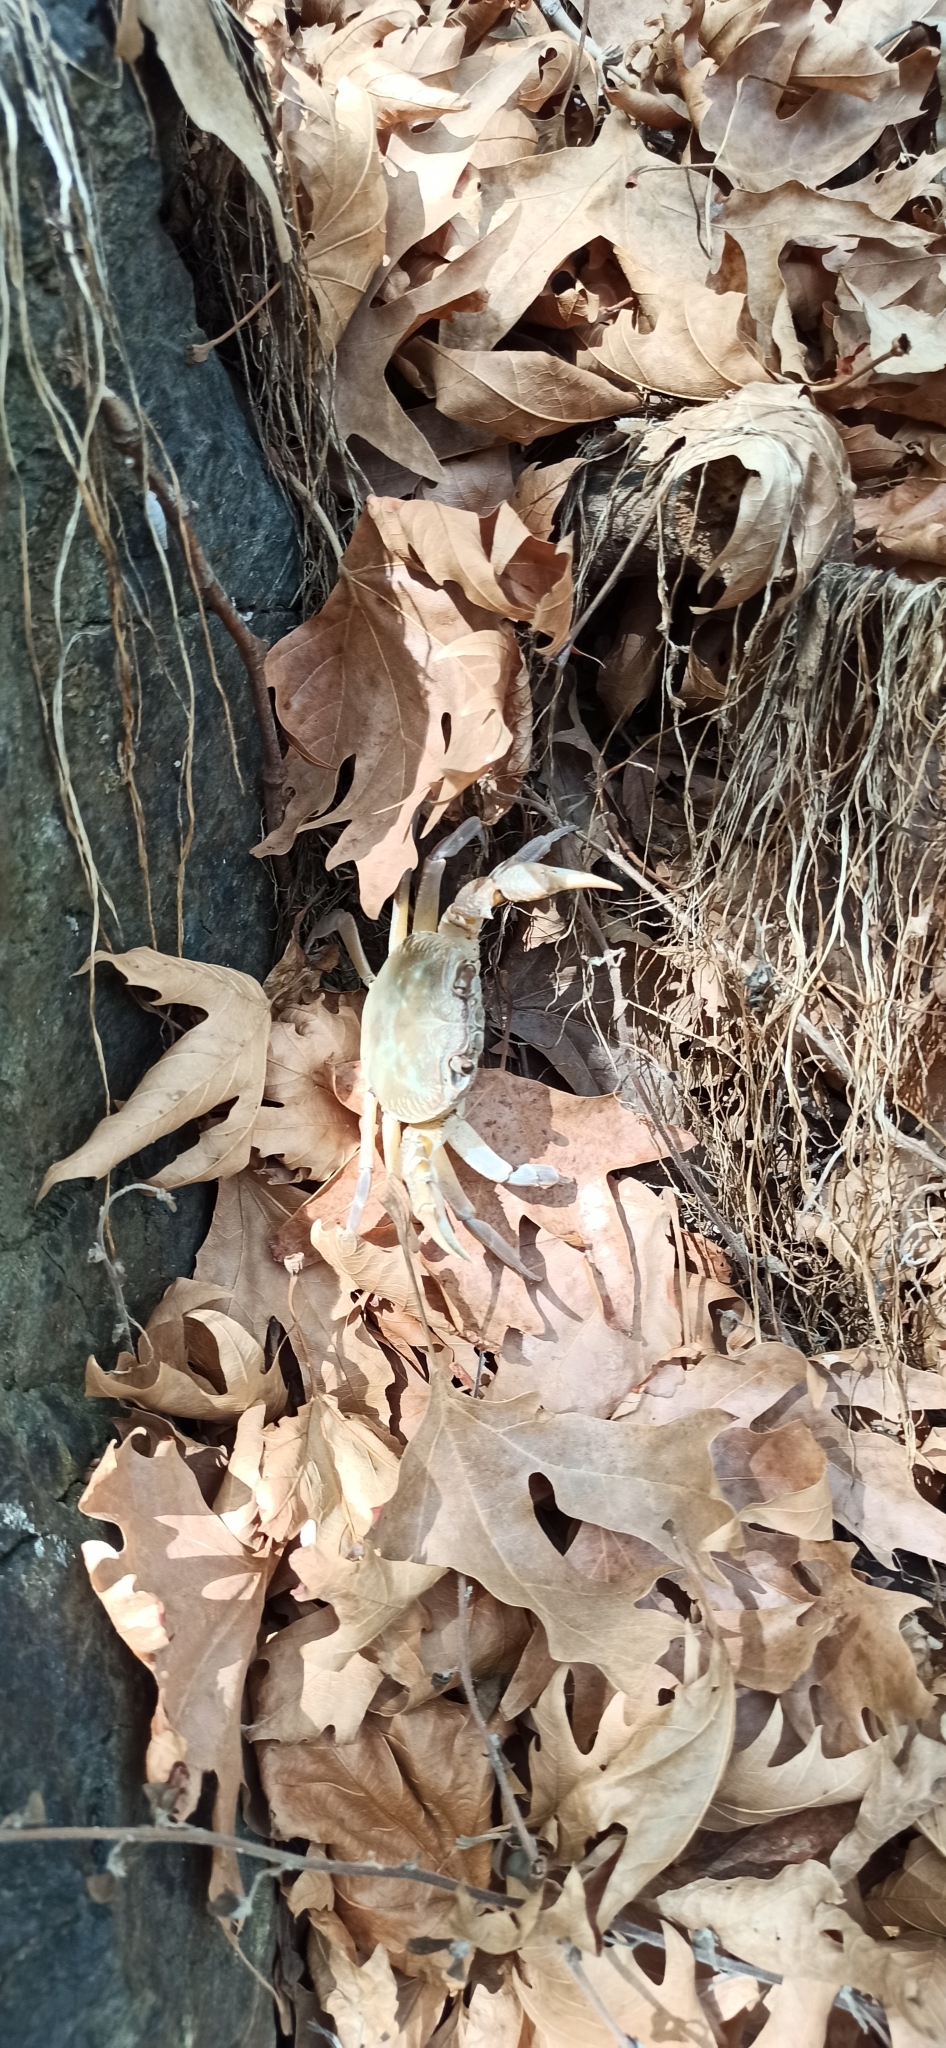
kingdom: Animalia
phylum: Arthropoda
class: Malacostraca
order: Decapoda
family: Potamidae
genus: Potamon
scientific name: Potamon hippocratis
